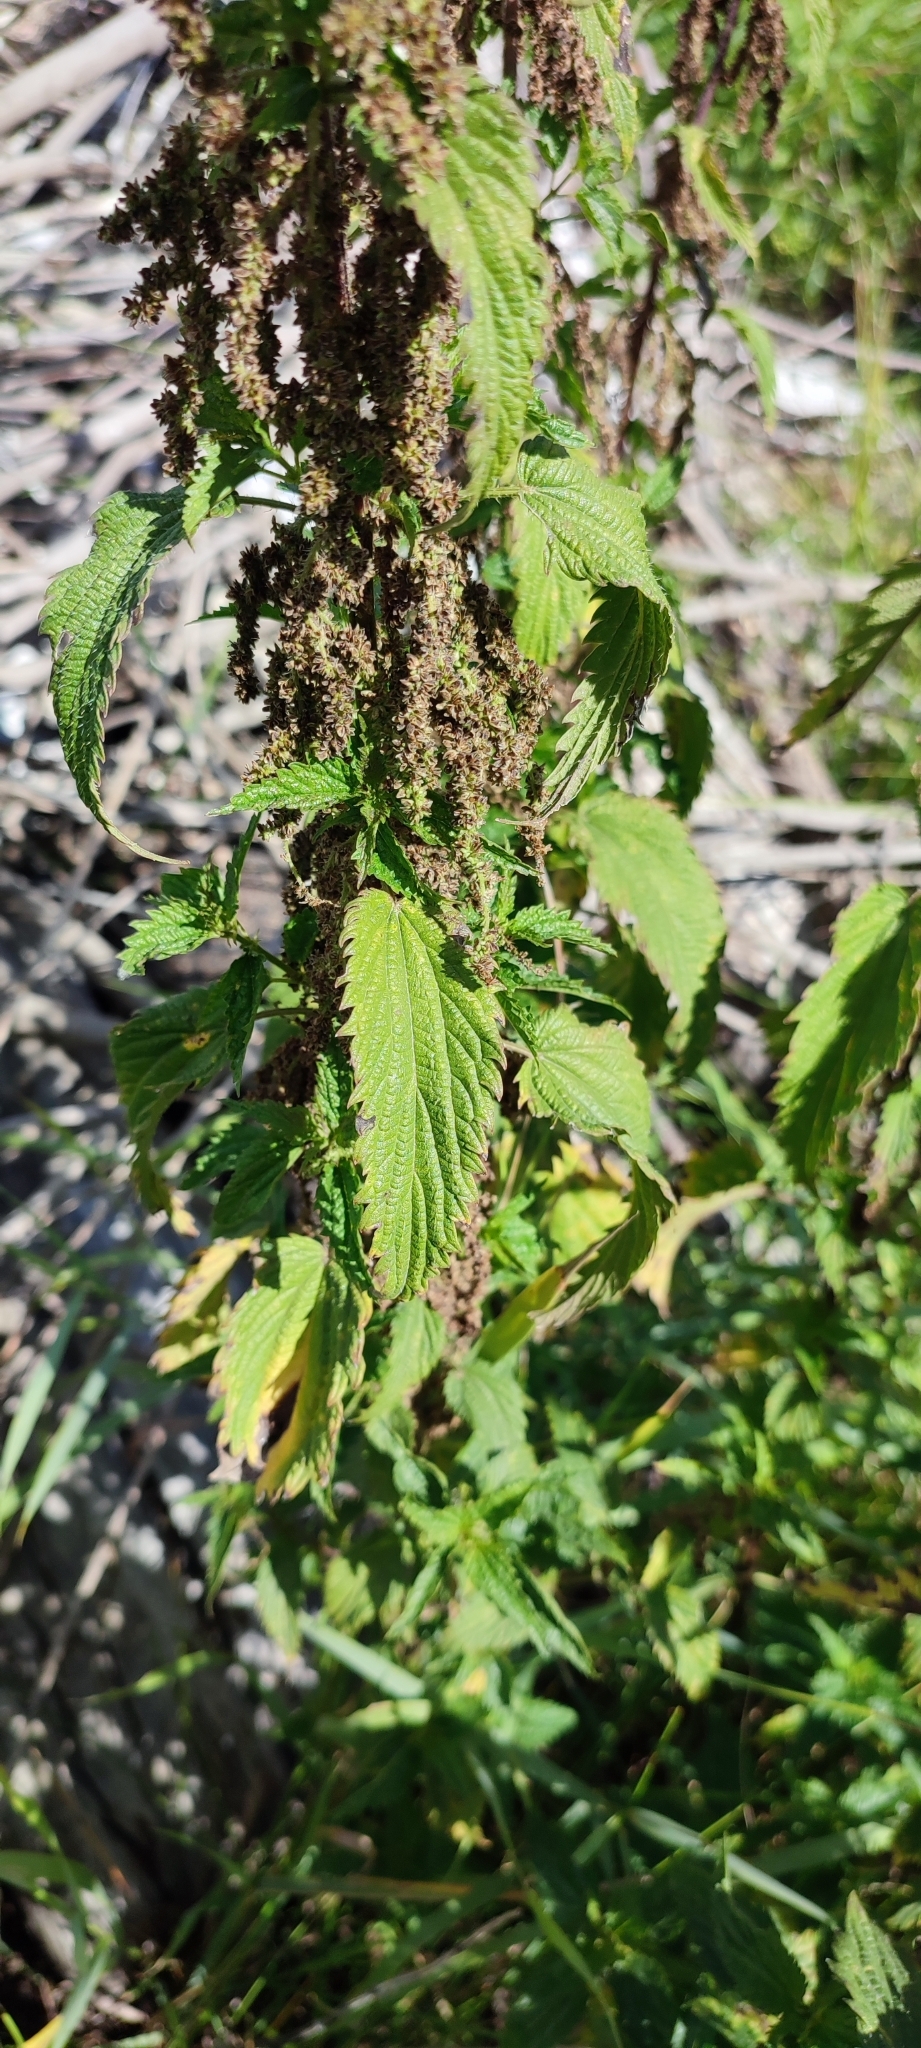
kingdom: Plantae
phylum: Tracheophyta
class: Magnoliopsida
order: Rosales
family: Urticaceae
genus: Urtica
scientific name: Urtica dioica
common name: Common nettle
